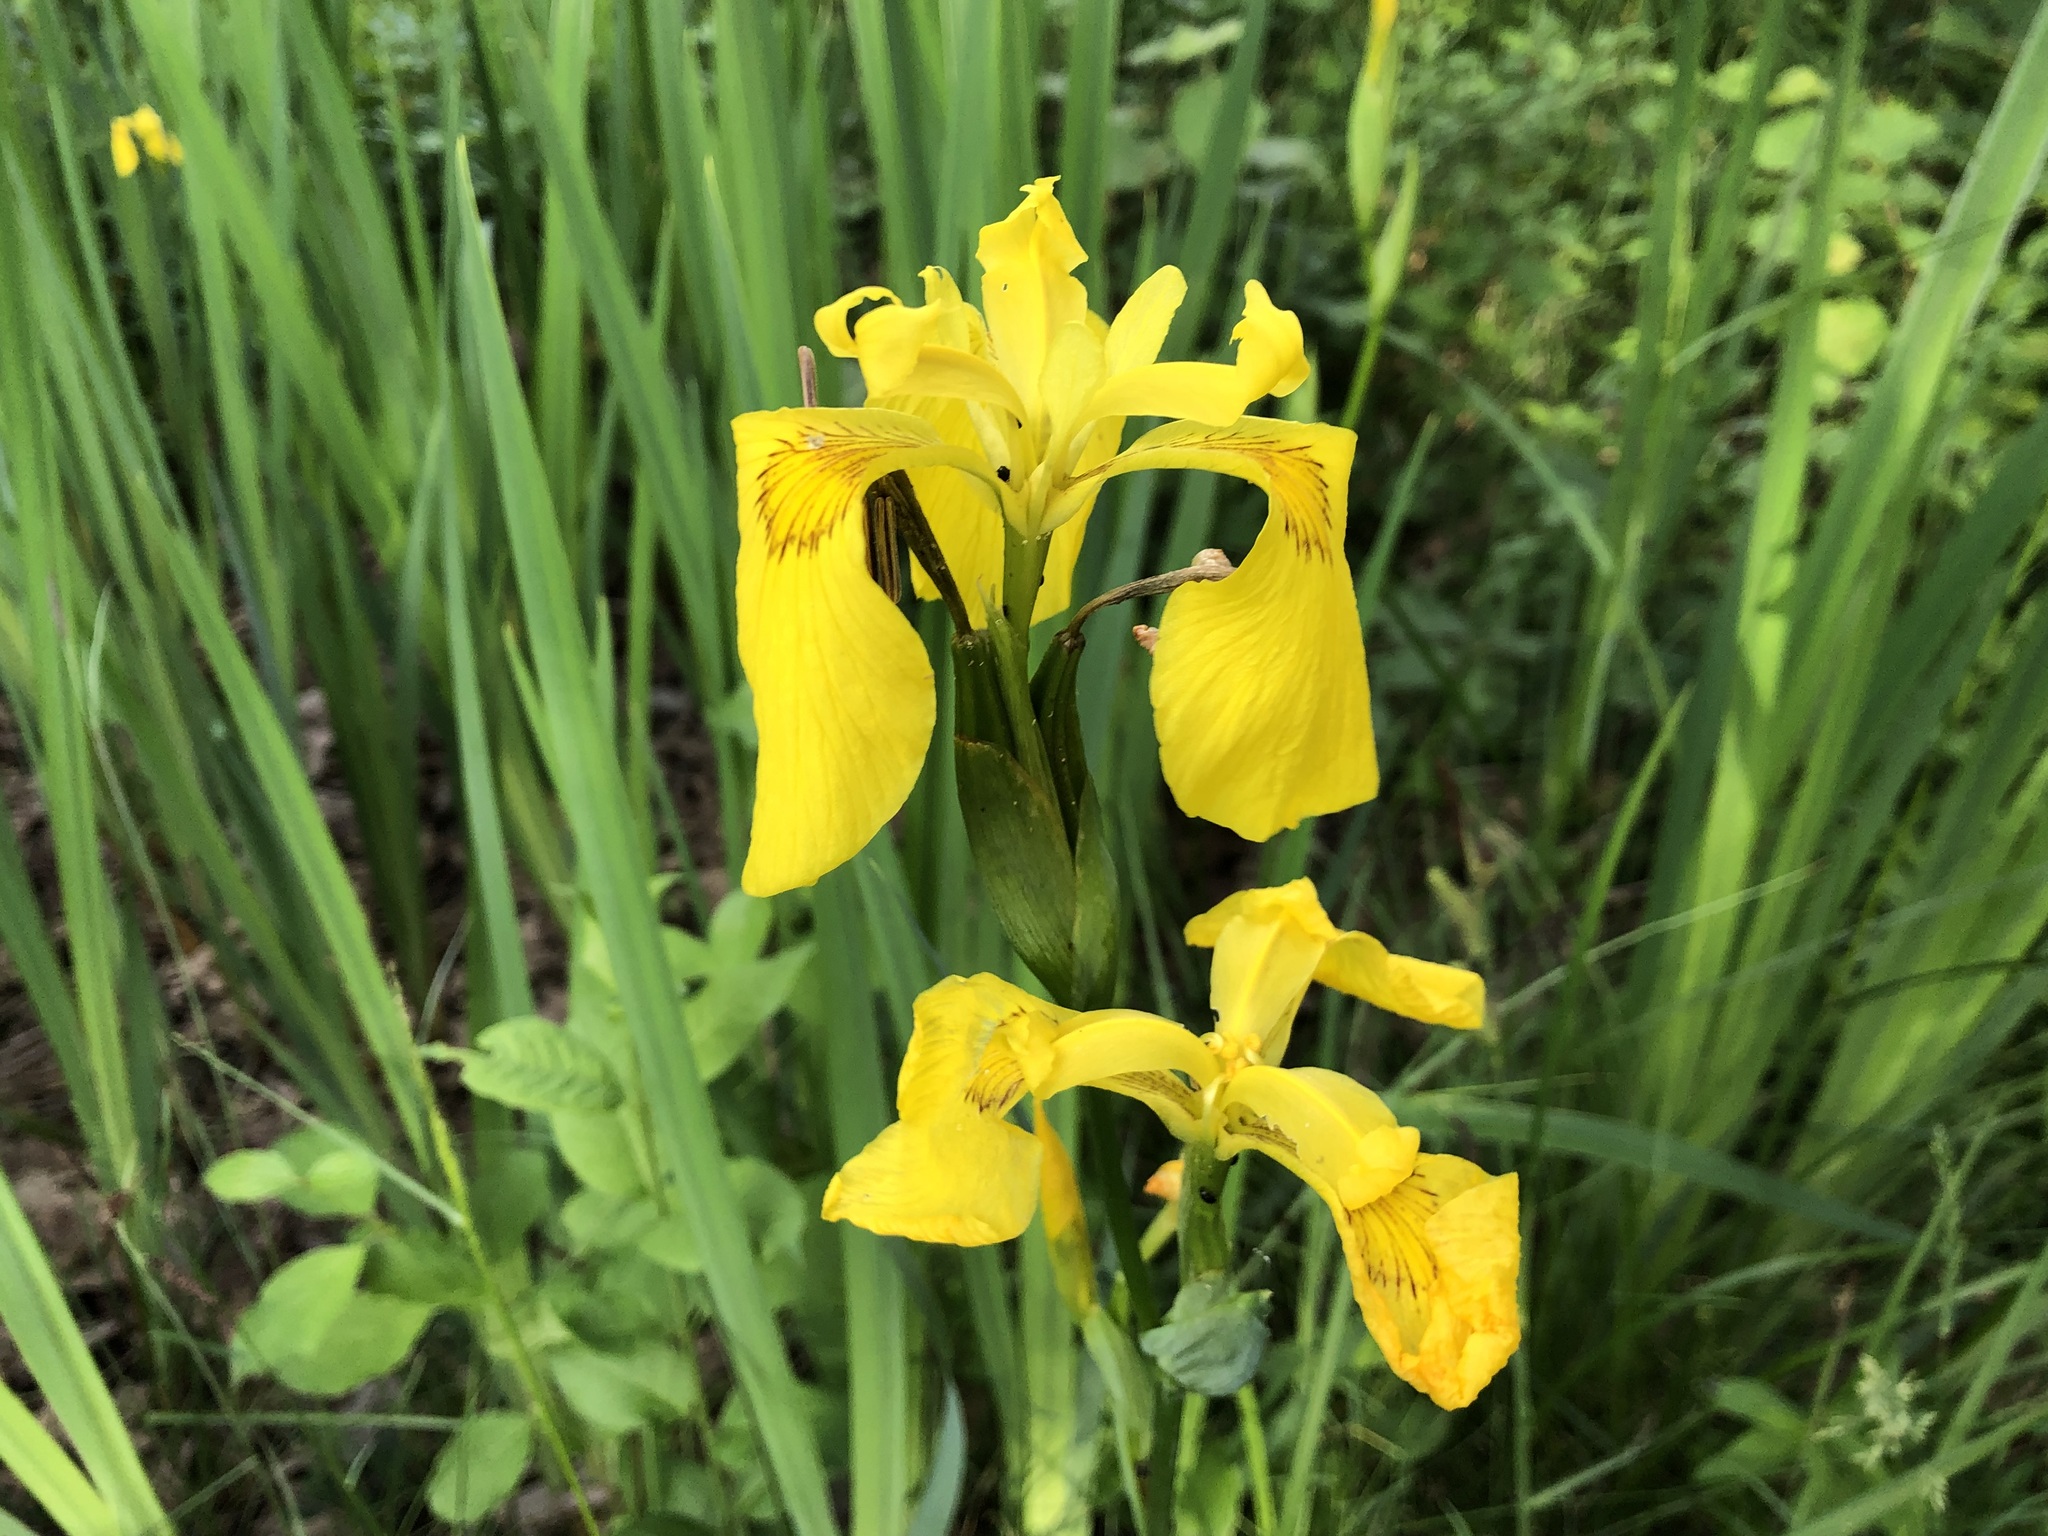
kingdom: Plantae
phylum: Tracheophyta
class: Liliopsida
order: Asparagales
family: Iridaceae
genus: Iris
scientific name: Iris pseudacorus
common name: Yellow flag
